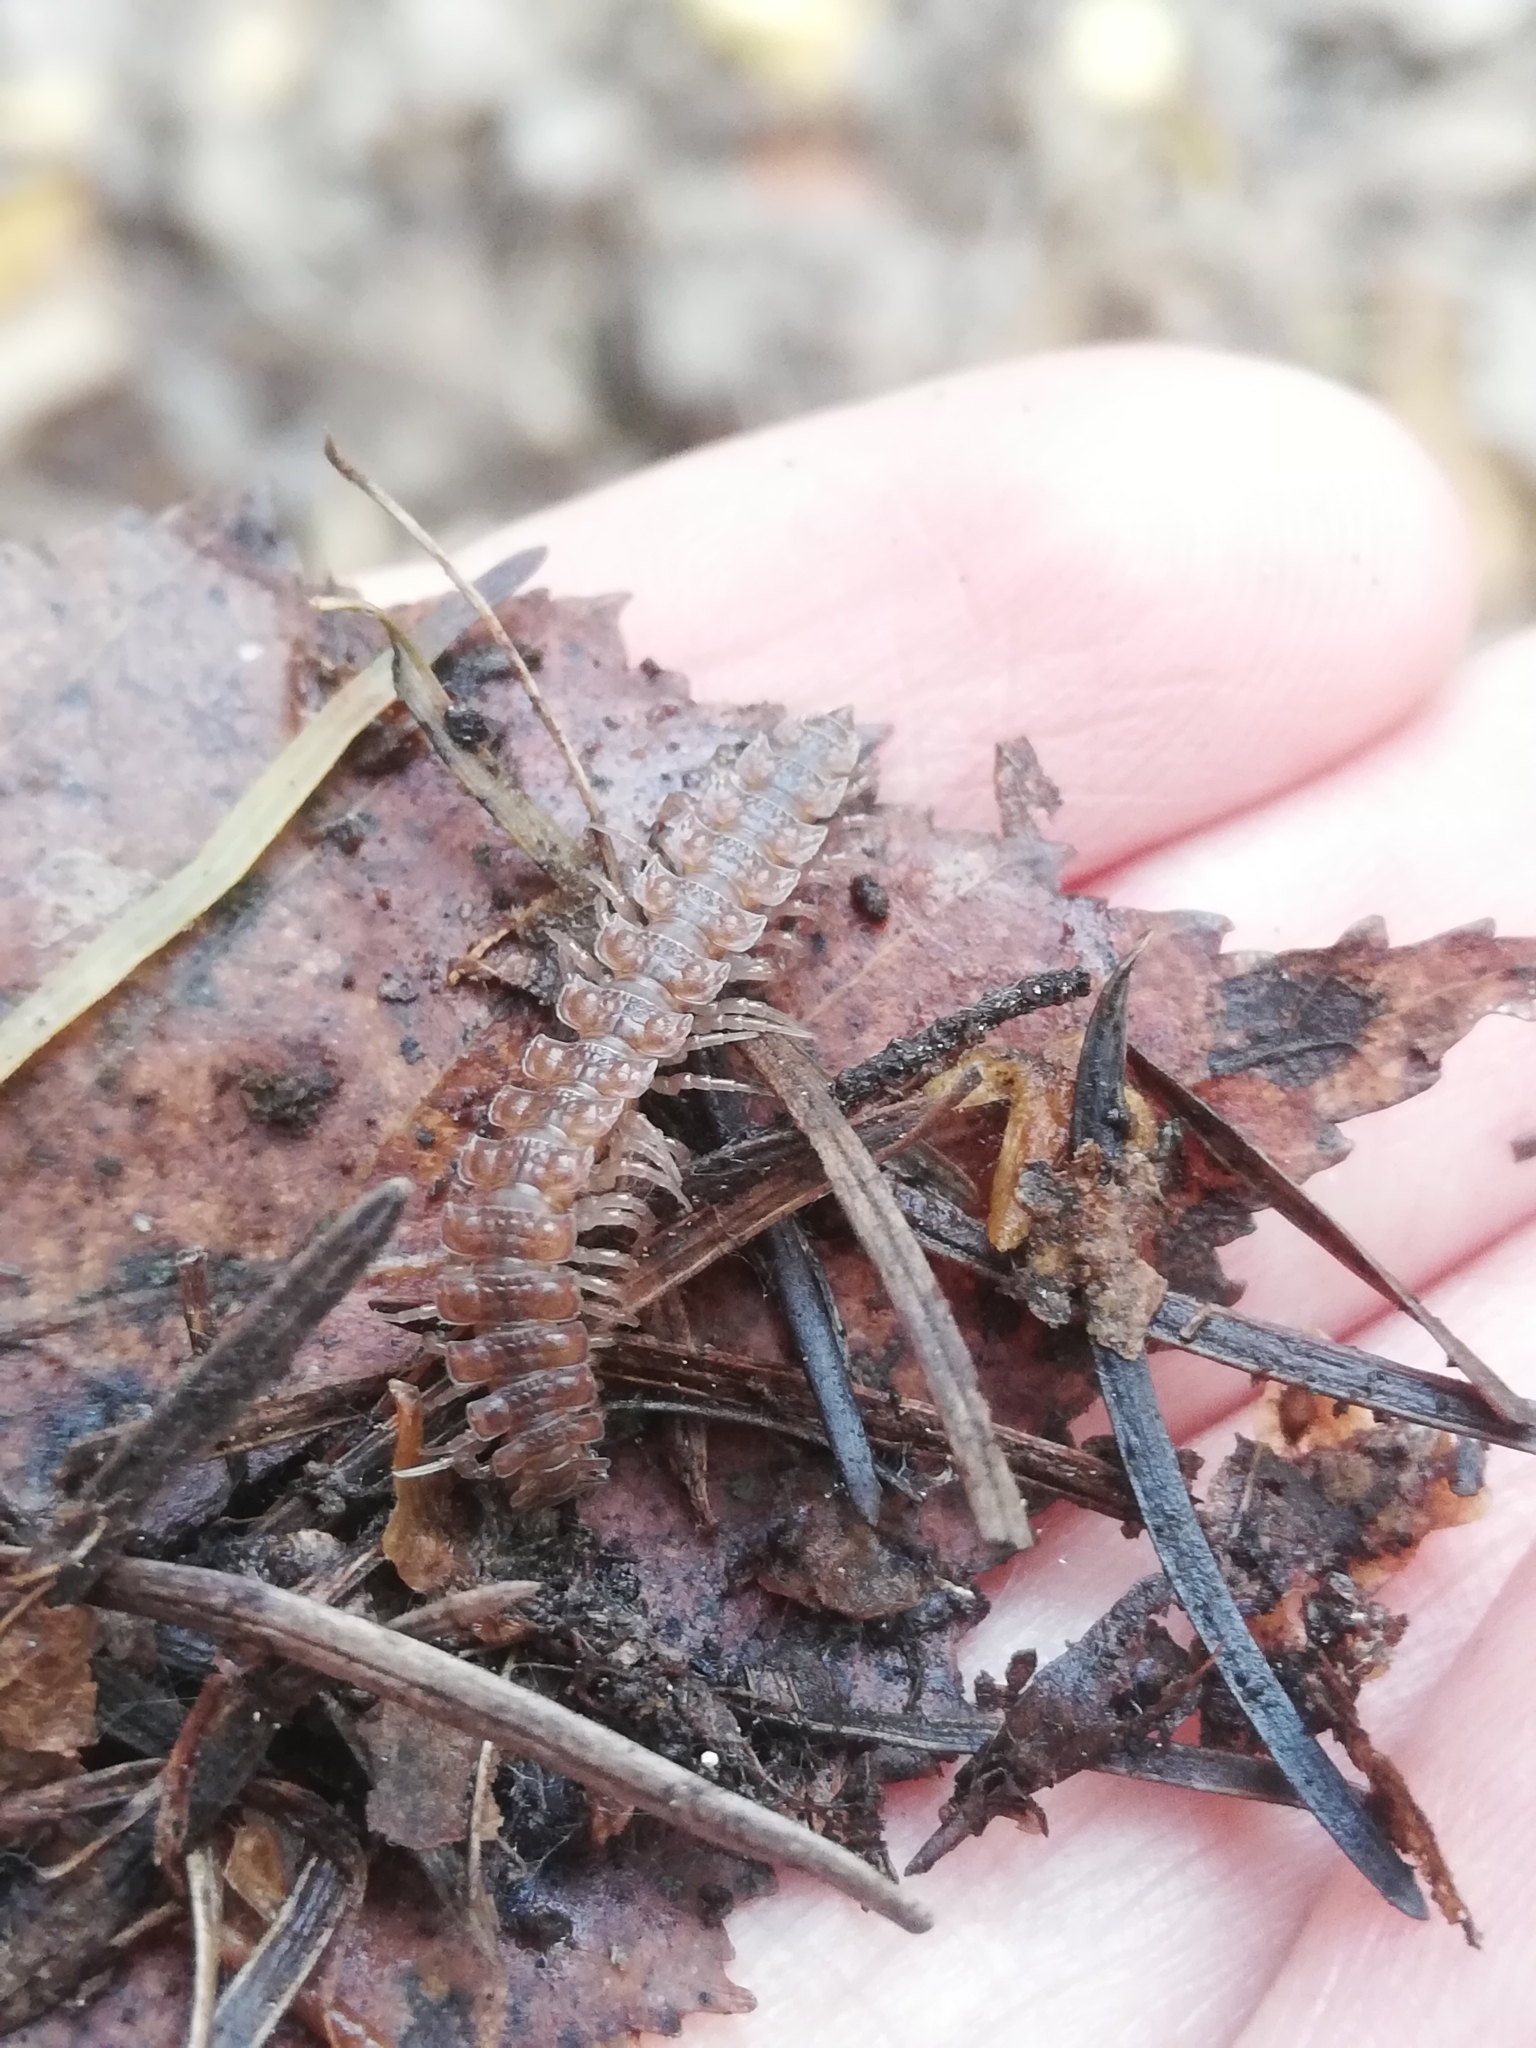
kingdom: Animalia
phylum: Arthropoda
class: Diplopoda
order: Polydesmida
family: Polydesmidae
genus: Polydesmus
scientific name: Polydesmus angustus
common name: Flat millipede
